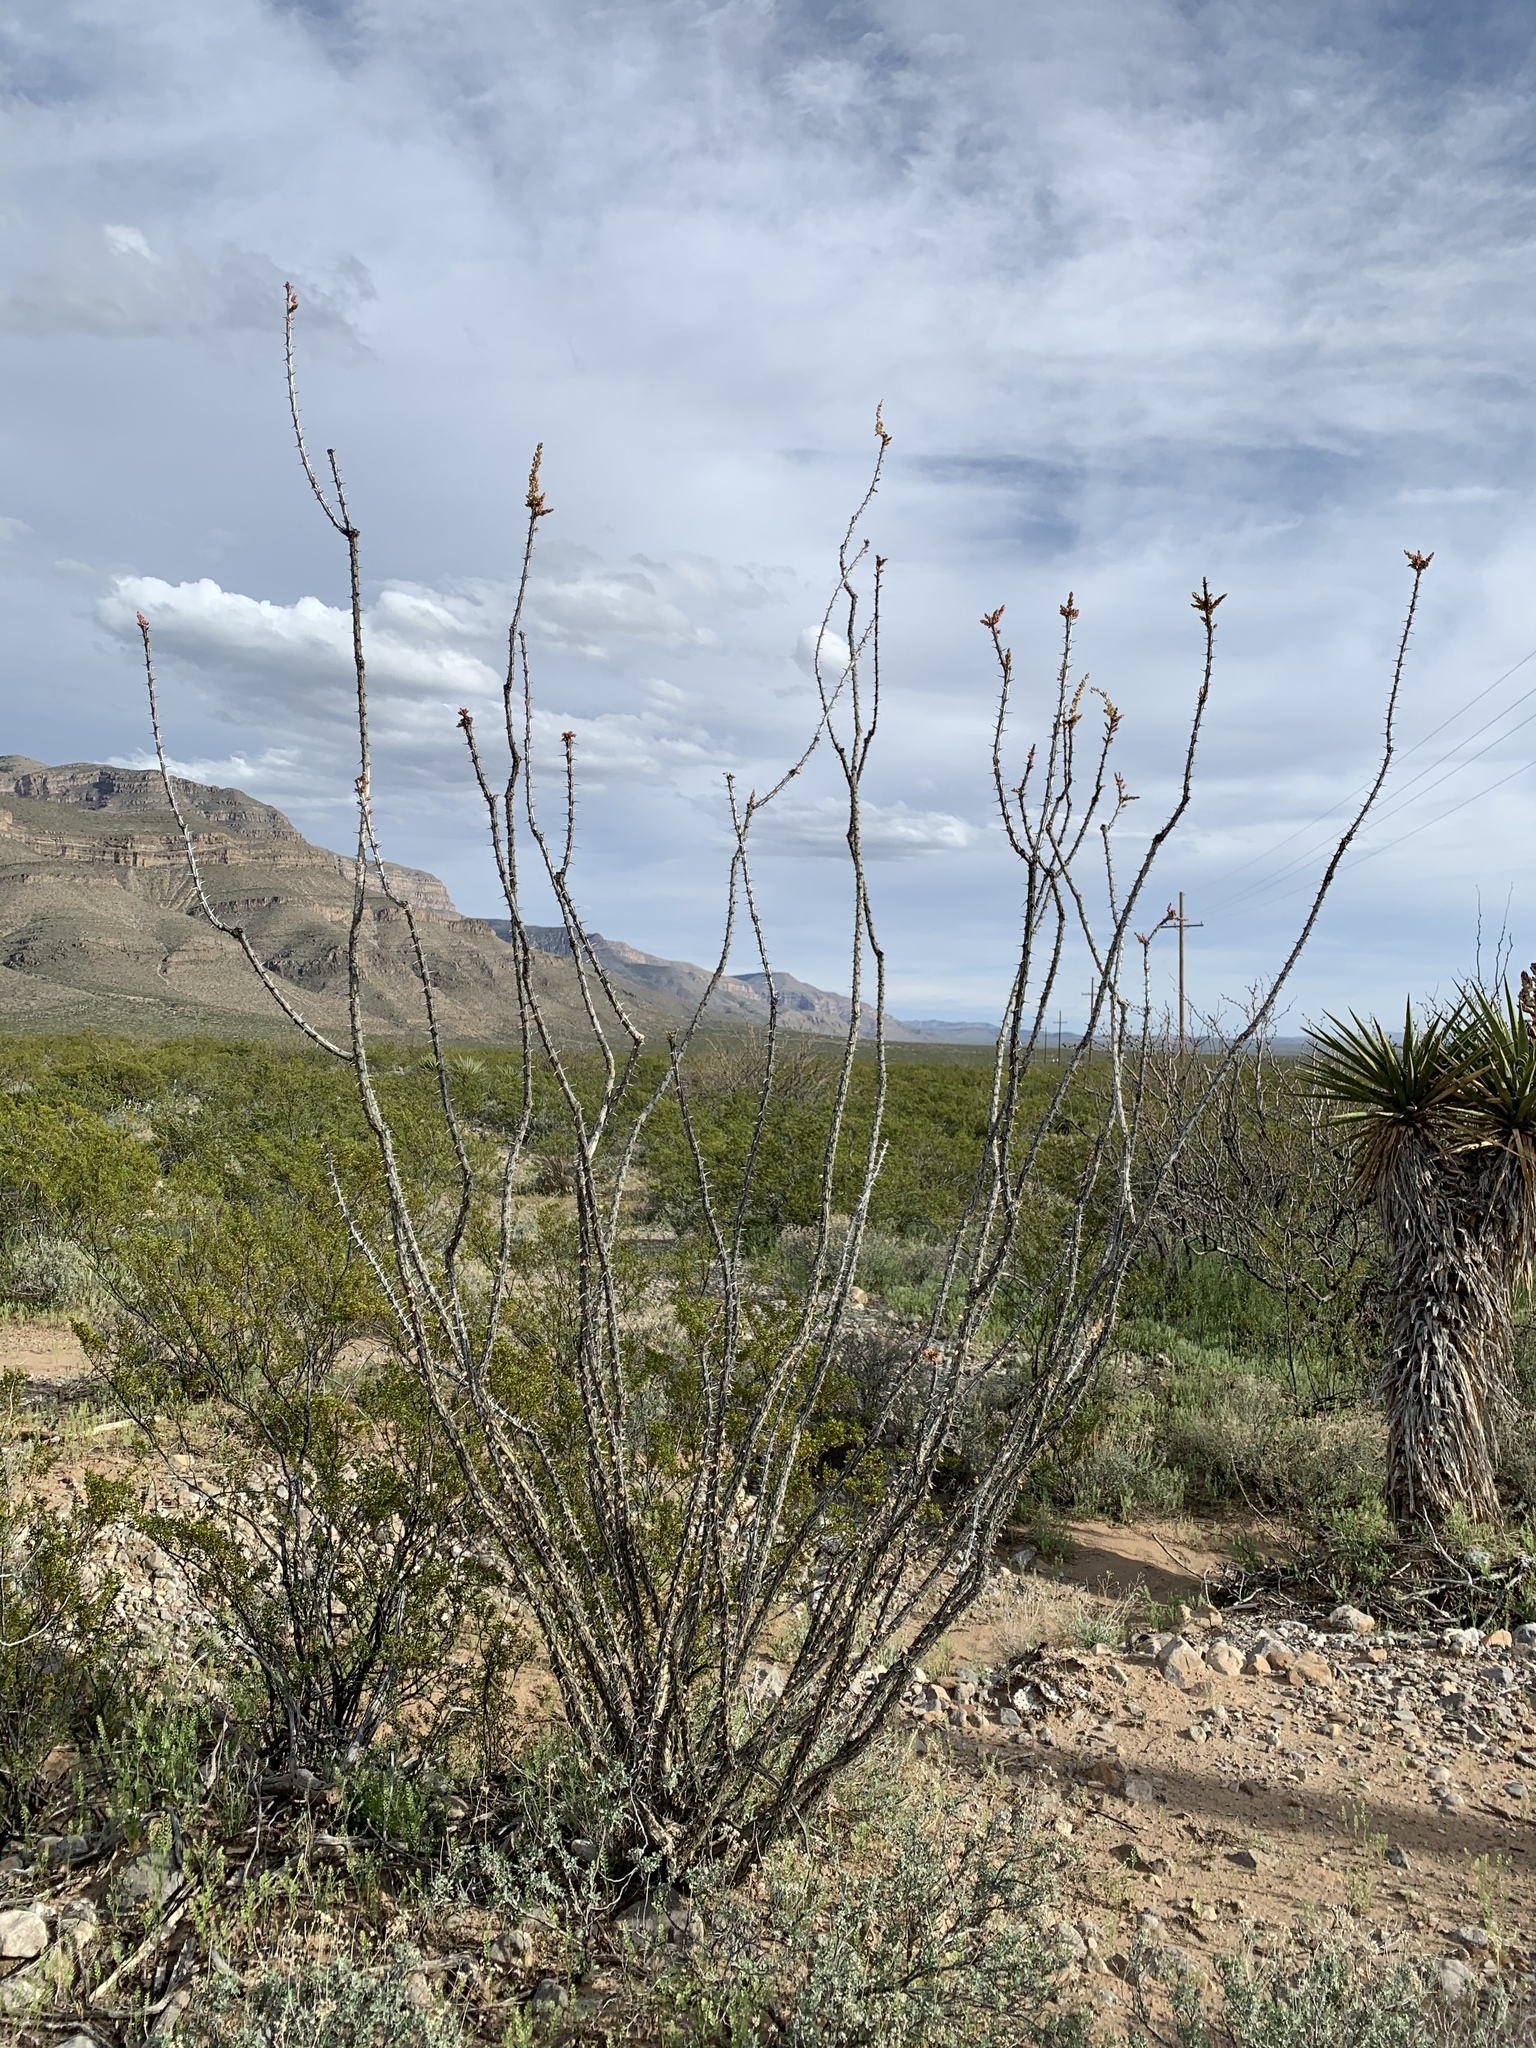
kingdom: Plantae
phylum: Tracheophyta
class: Magnoliopsida
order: Ericales
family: Fouquieriaceae
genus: Fouquieria
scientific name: Fouquieria splendens
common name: Vine-cactus
